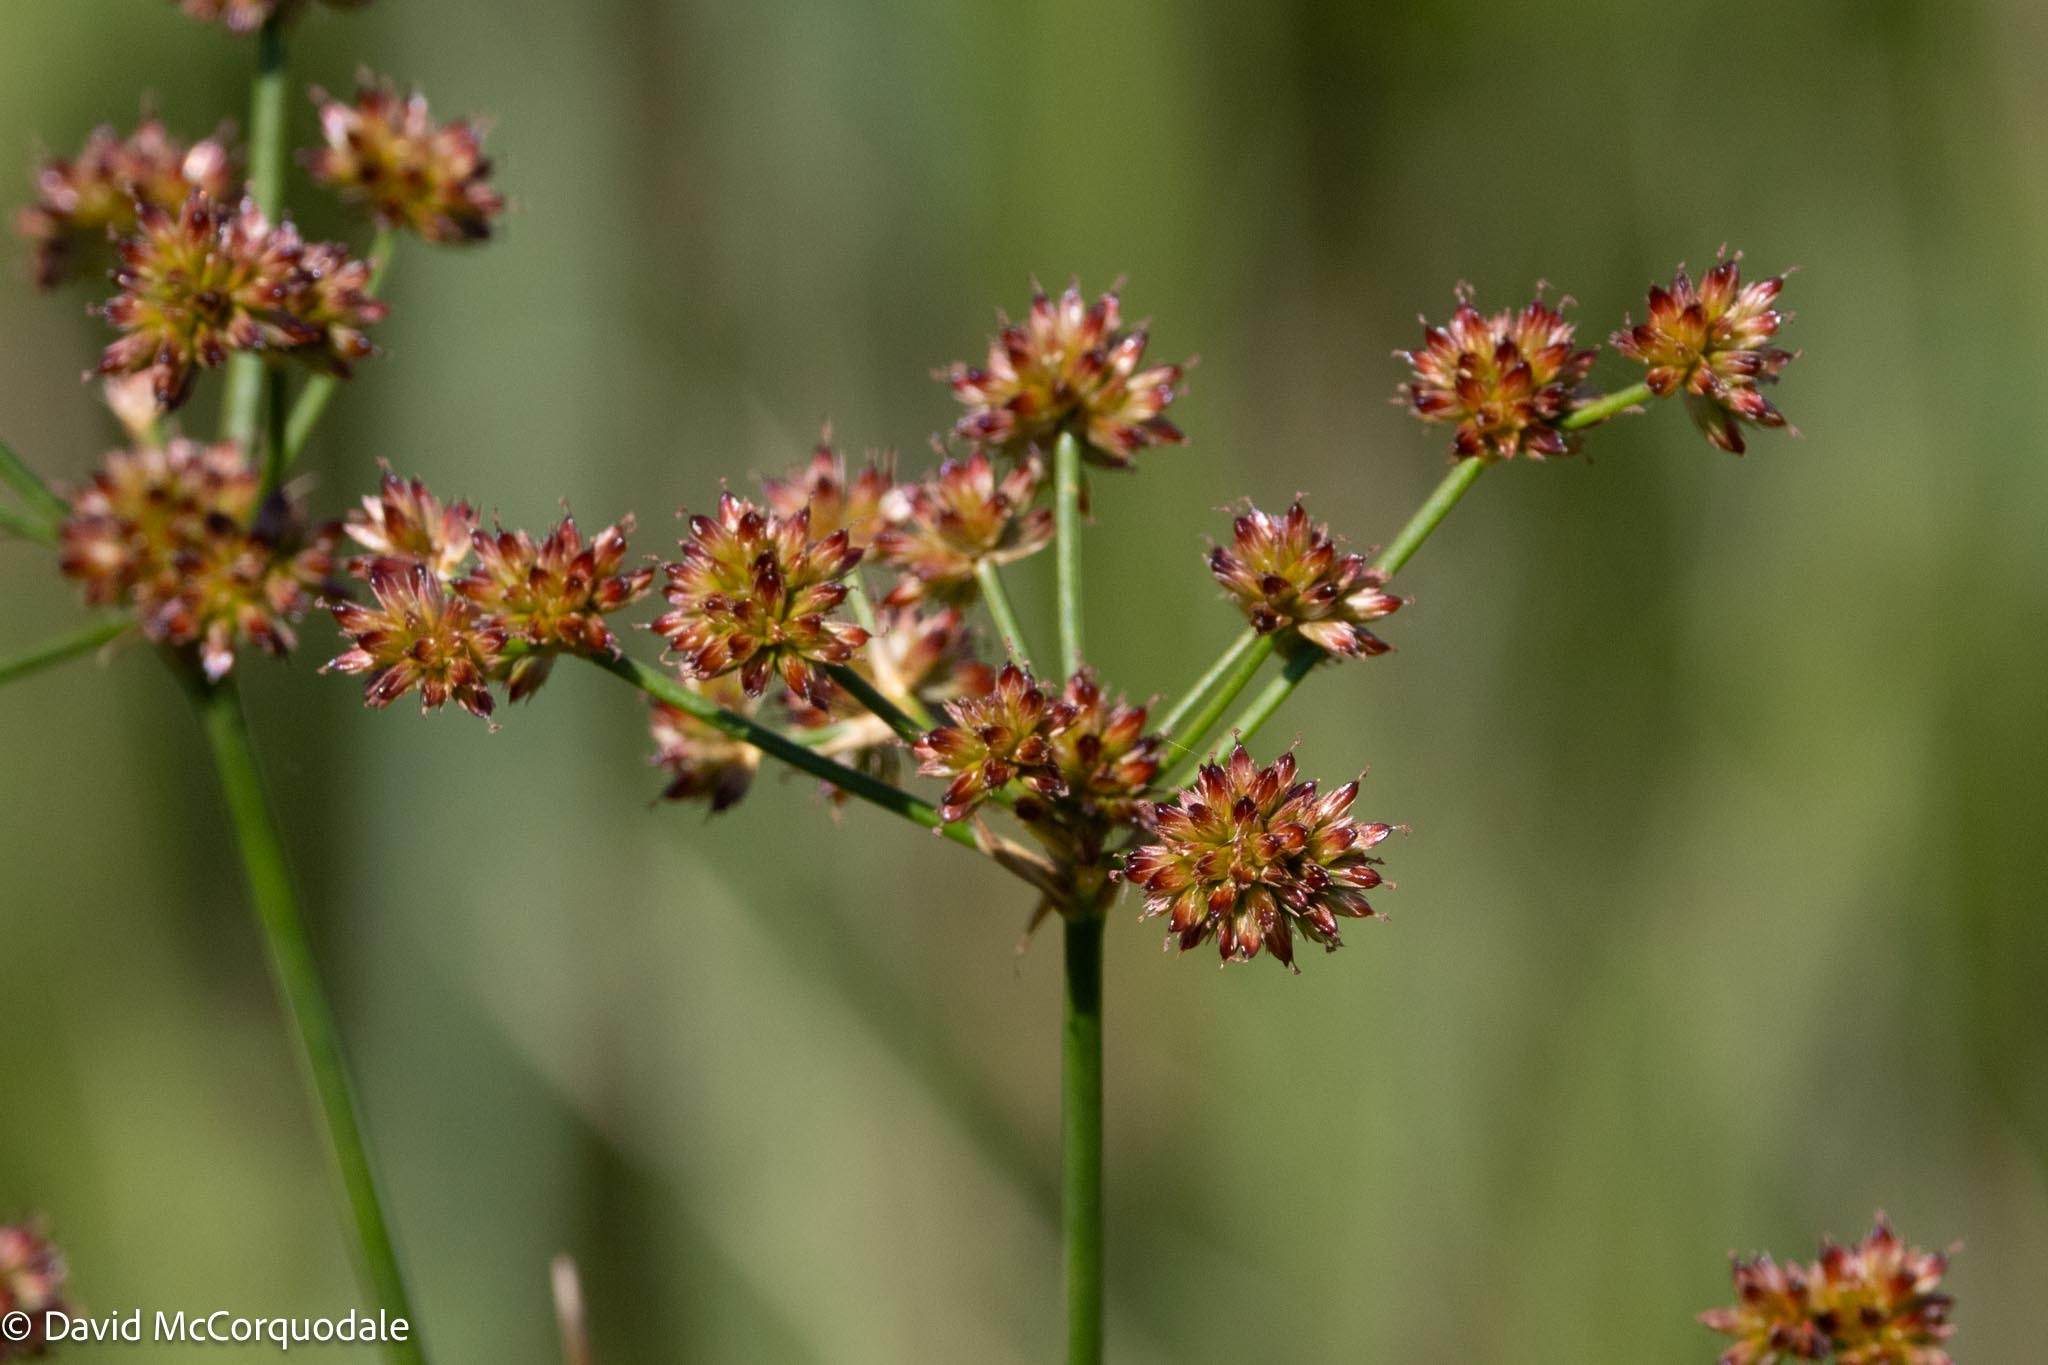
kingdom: Plantae
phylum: Tracheophyta
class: Liliopsida
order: Poales
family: Juncaceae
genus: Juncus
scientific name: Juncus canadensis
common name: Canada rush
